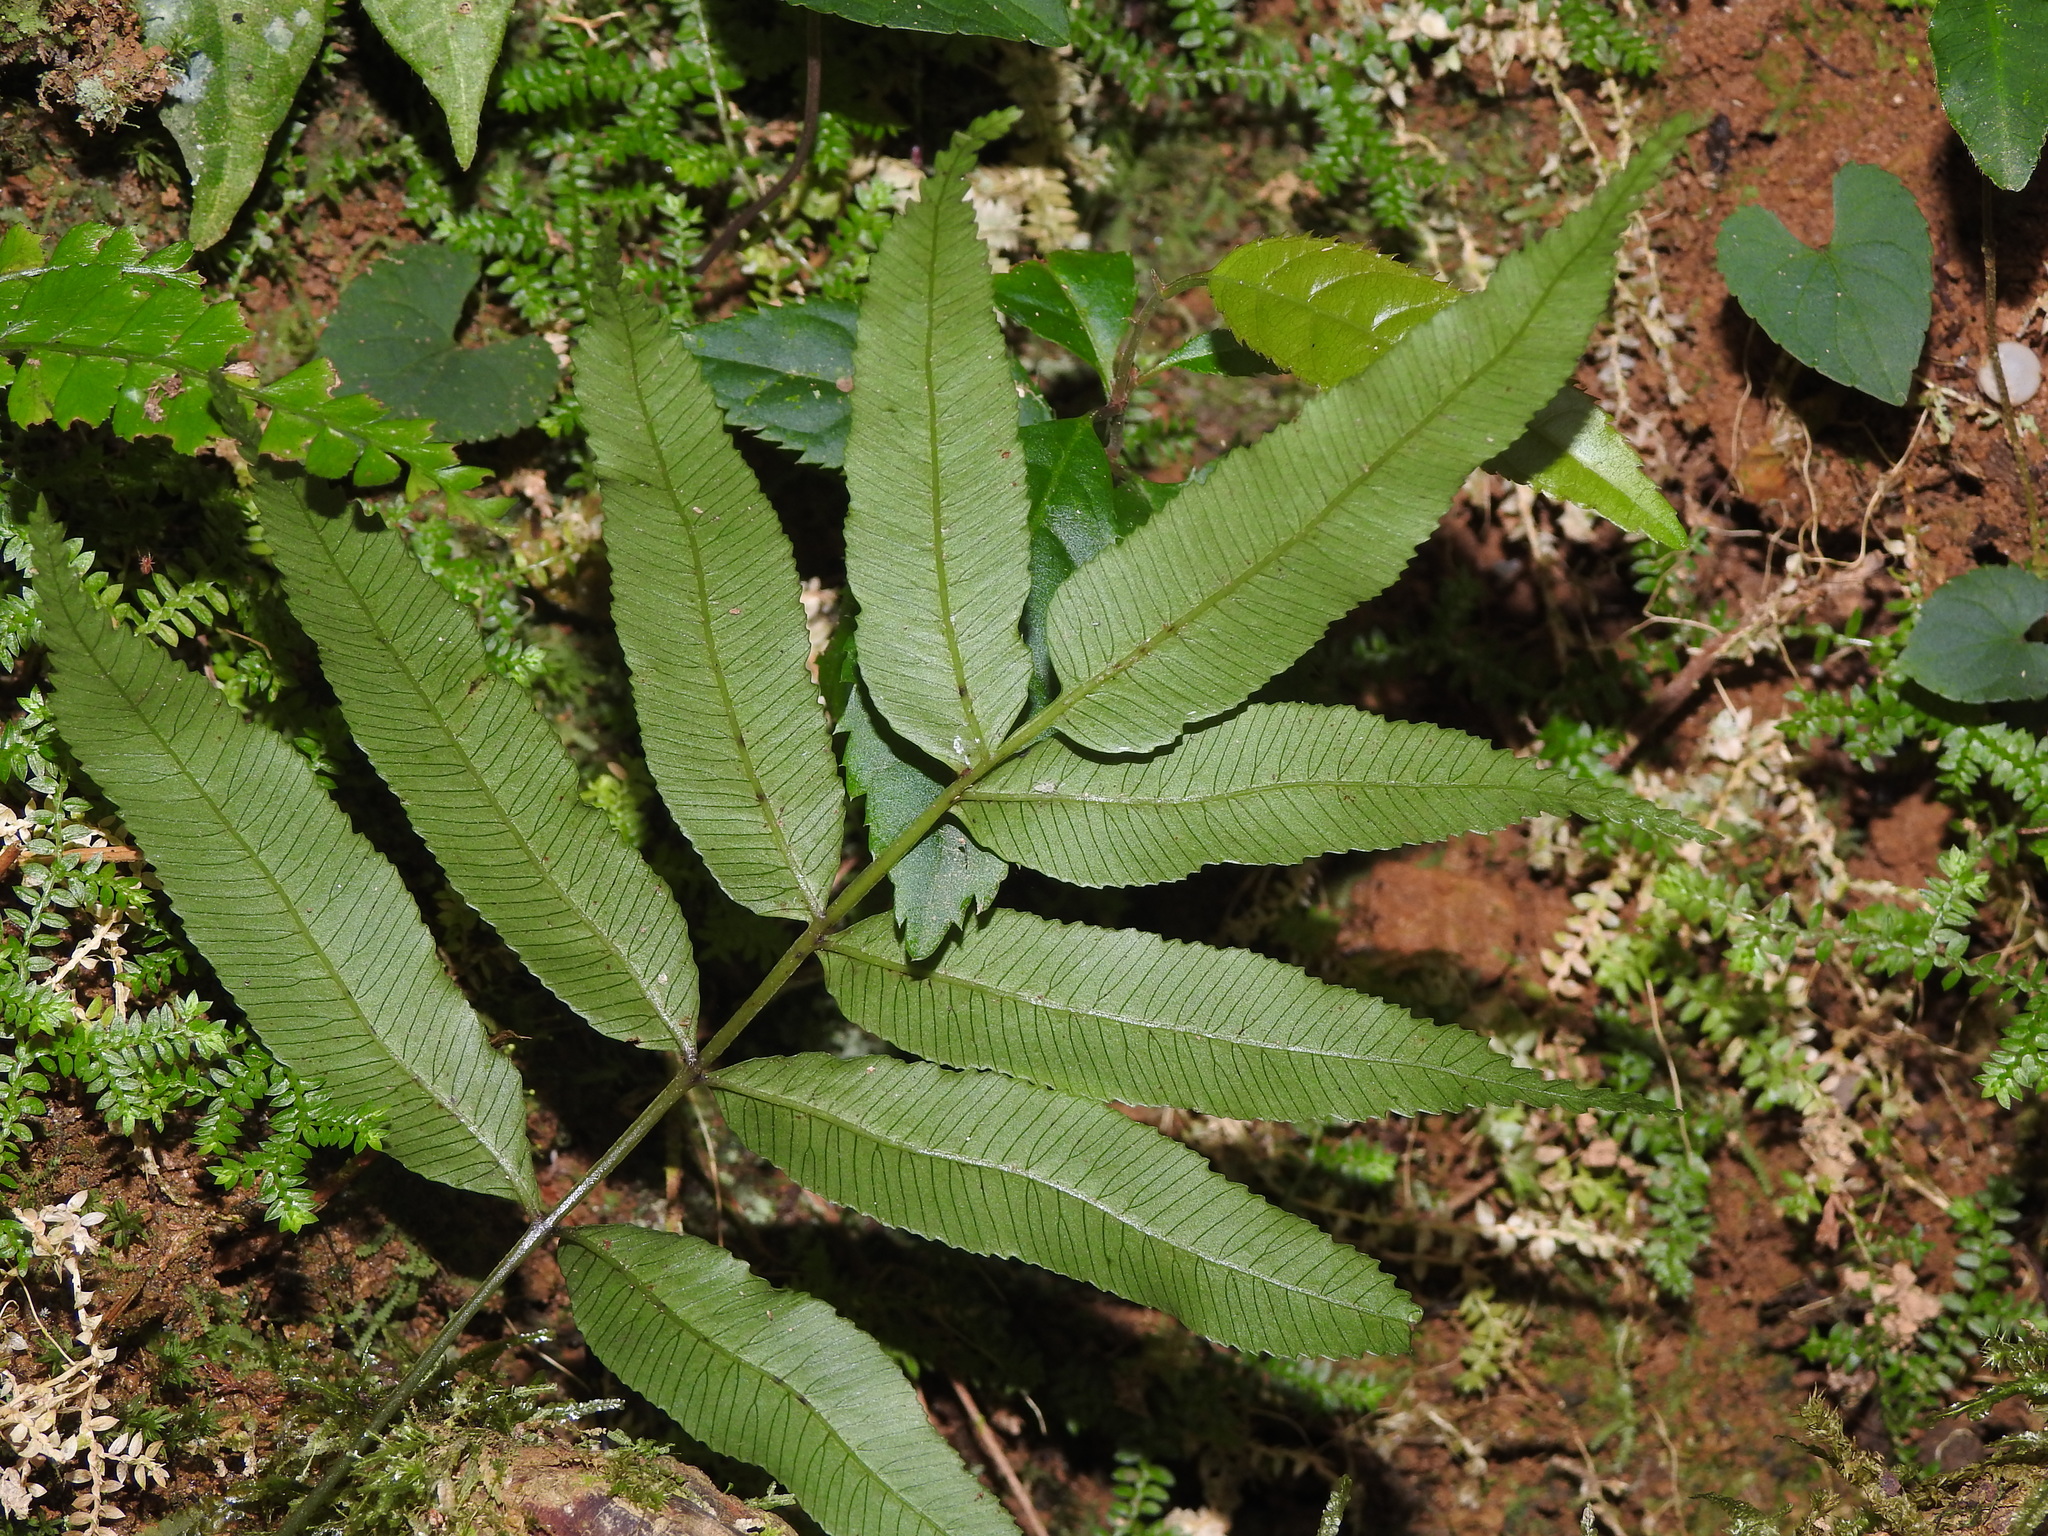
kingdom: Plantae
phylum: Tracheophyta
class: Polypodiopsida
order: Cyatheales
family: Plagiogyriaceae
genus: Plagiogyria
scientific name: Plagiogyria euphlebia
